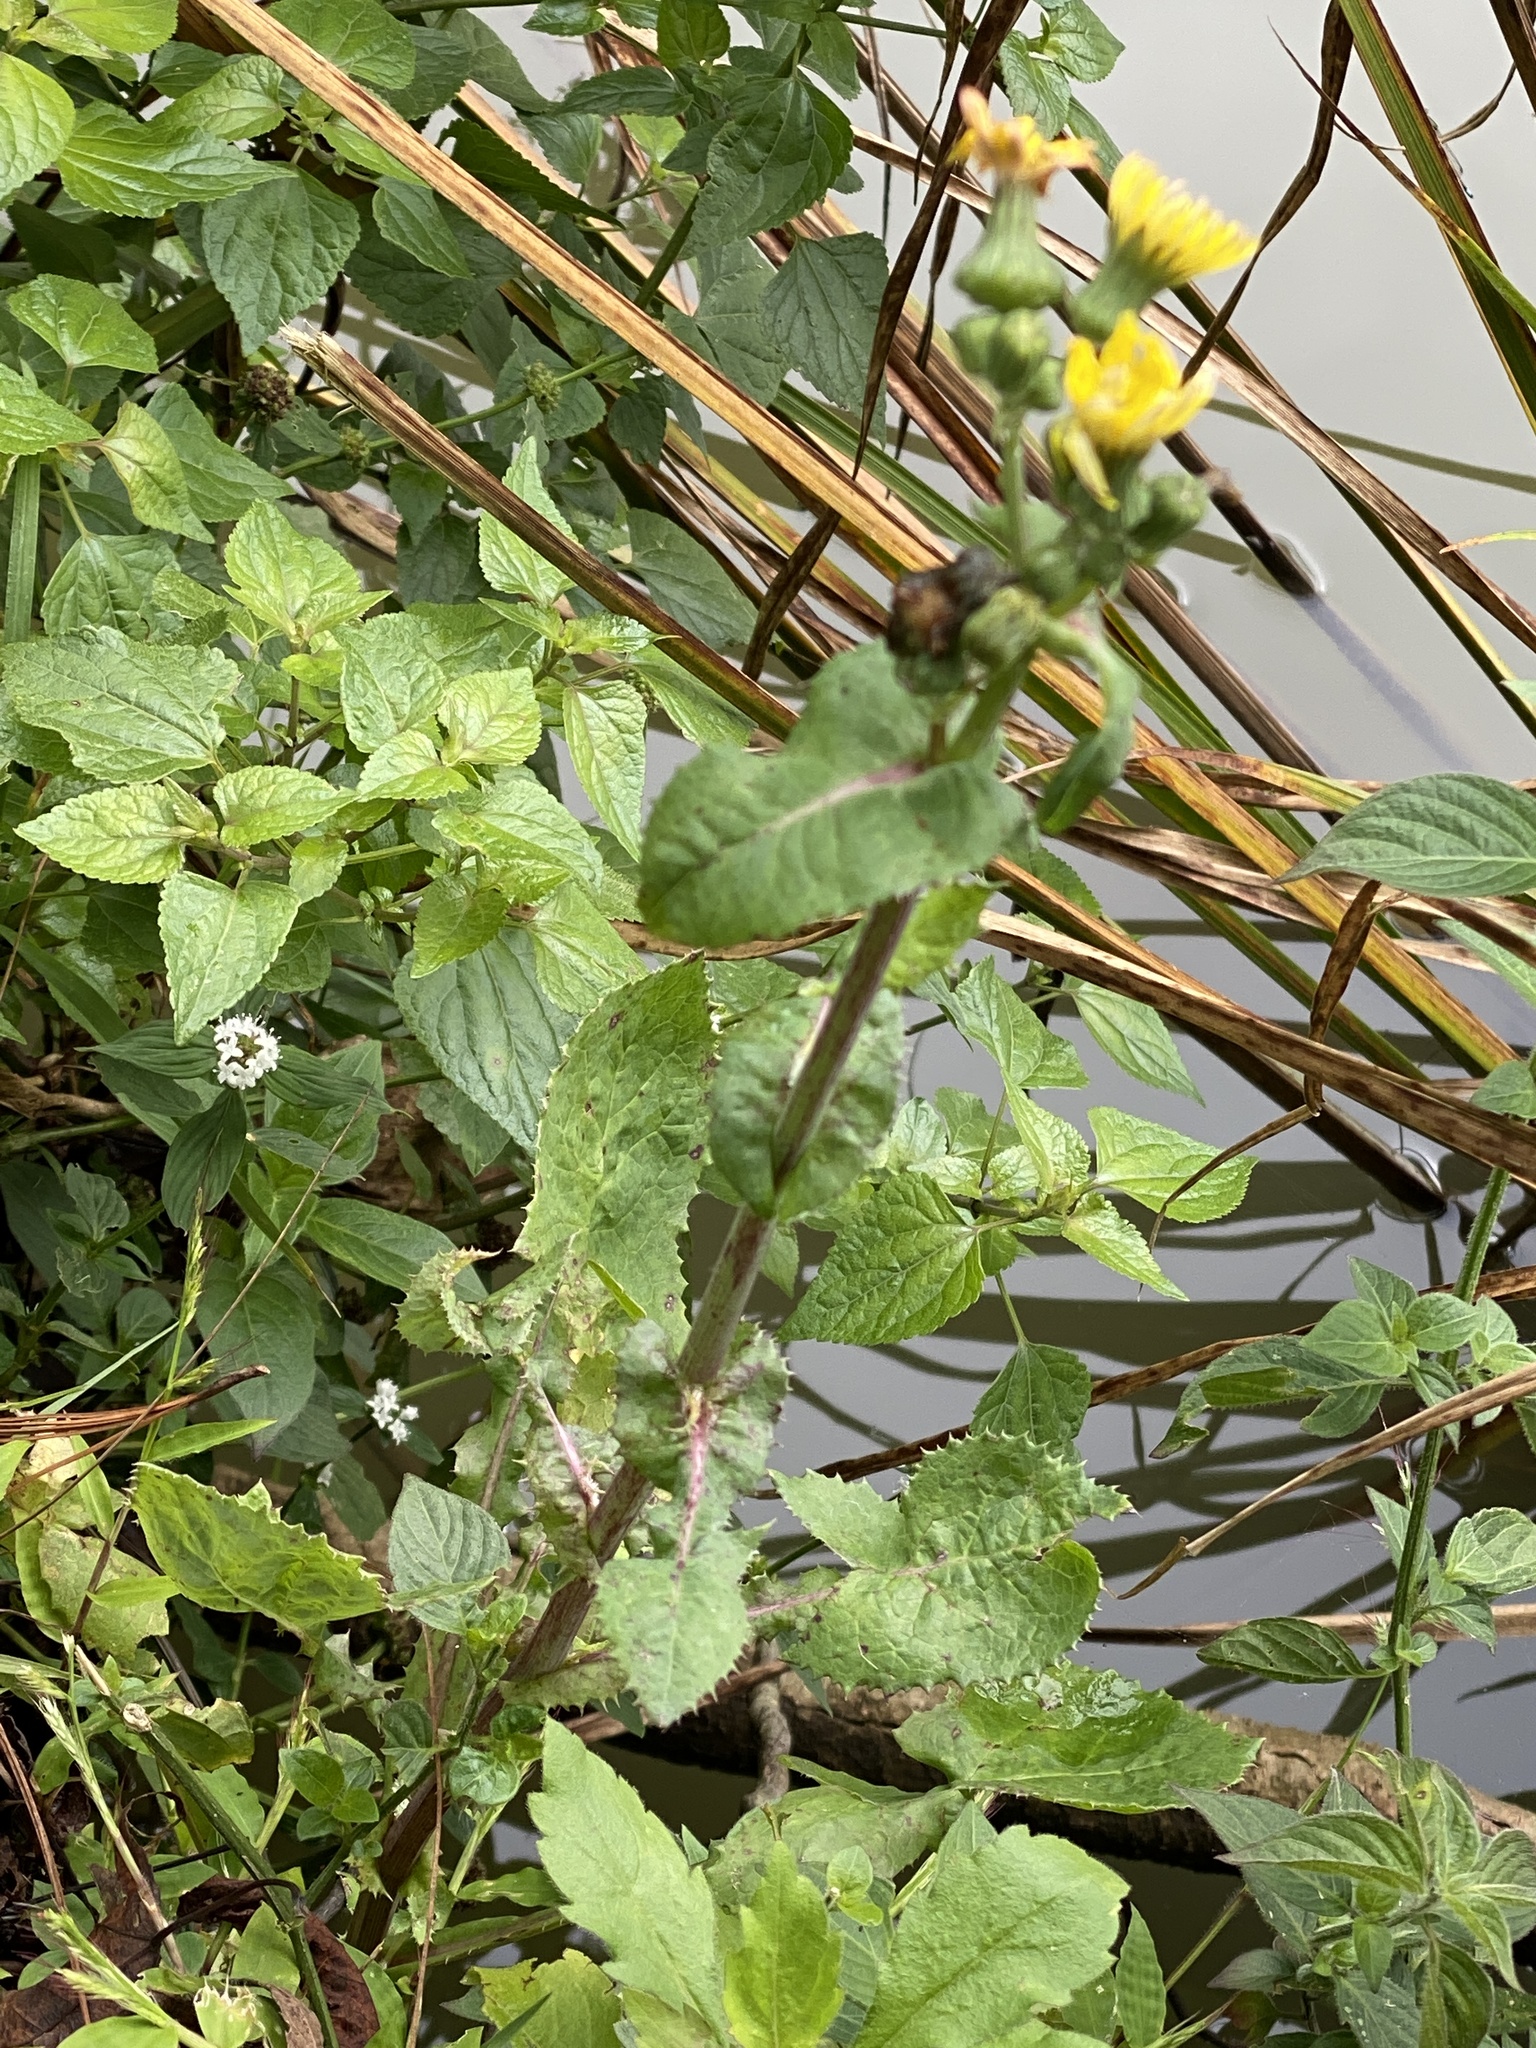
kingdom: Plantae
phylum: Tracheophyta
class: Magnoliopsida
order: Asterales
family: Asteraceae
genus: Sonchus
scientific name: Sonchus oleraceus
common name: Common sowthistle
